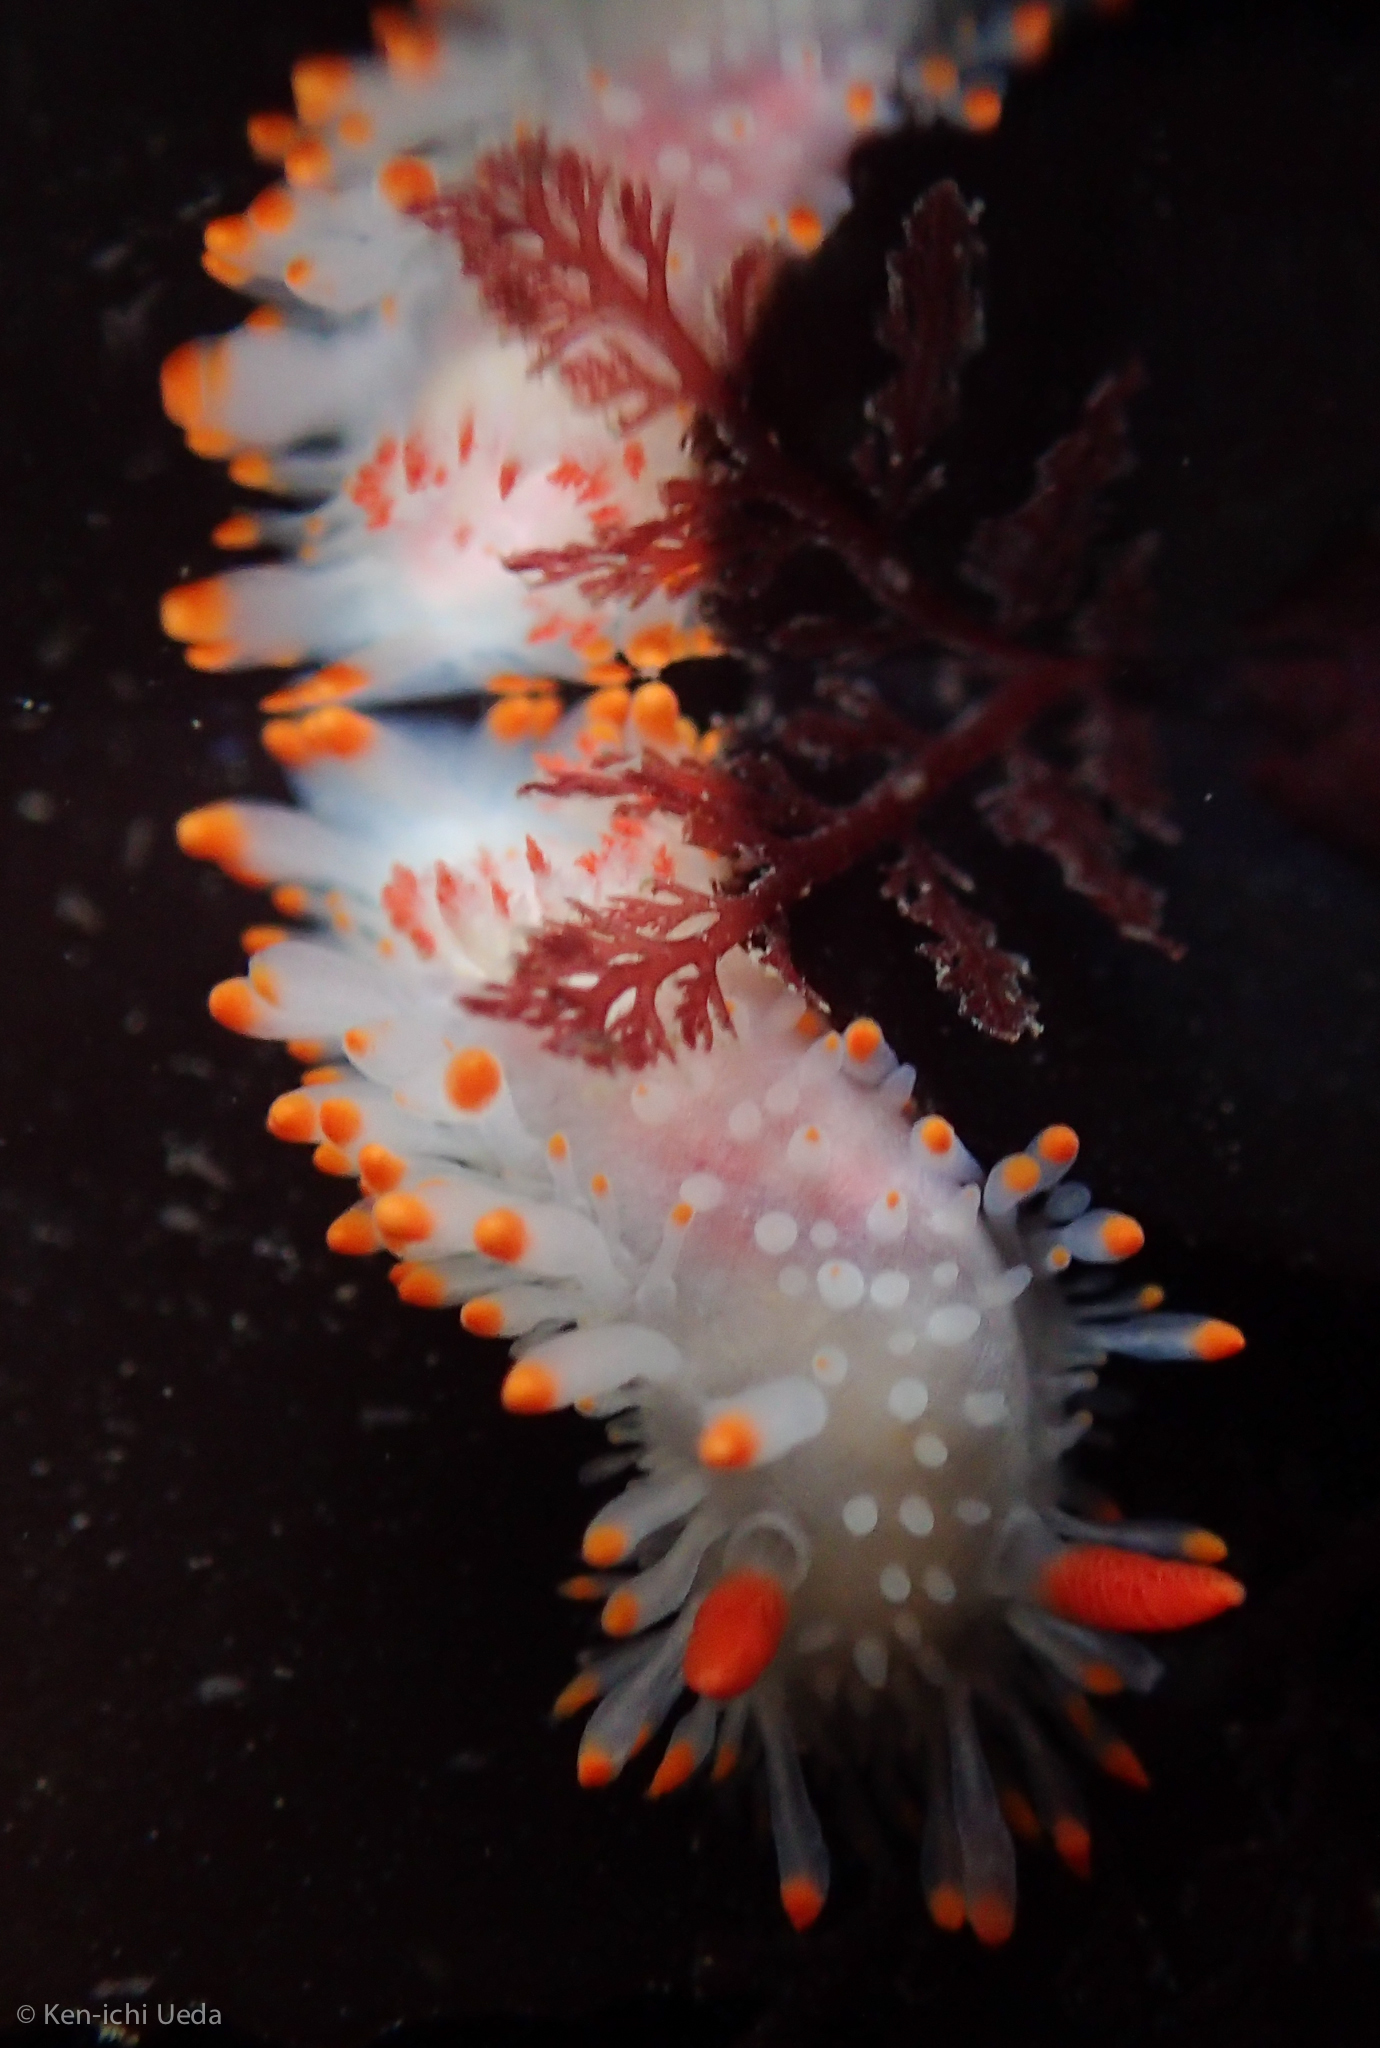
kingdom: Animalia
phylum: Mollusca
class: Gastropoda
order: Nudibranchia
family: Polyceridae
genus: Limacia
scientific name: Limacia cockerelli
